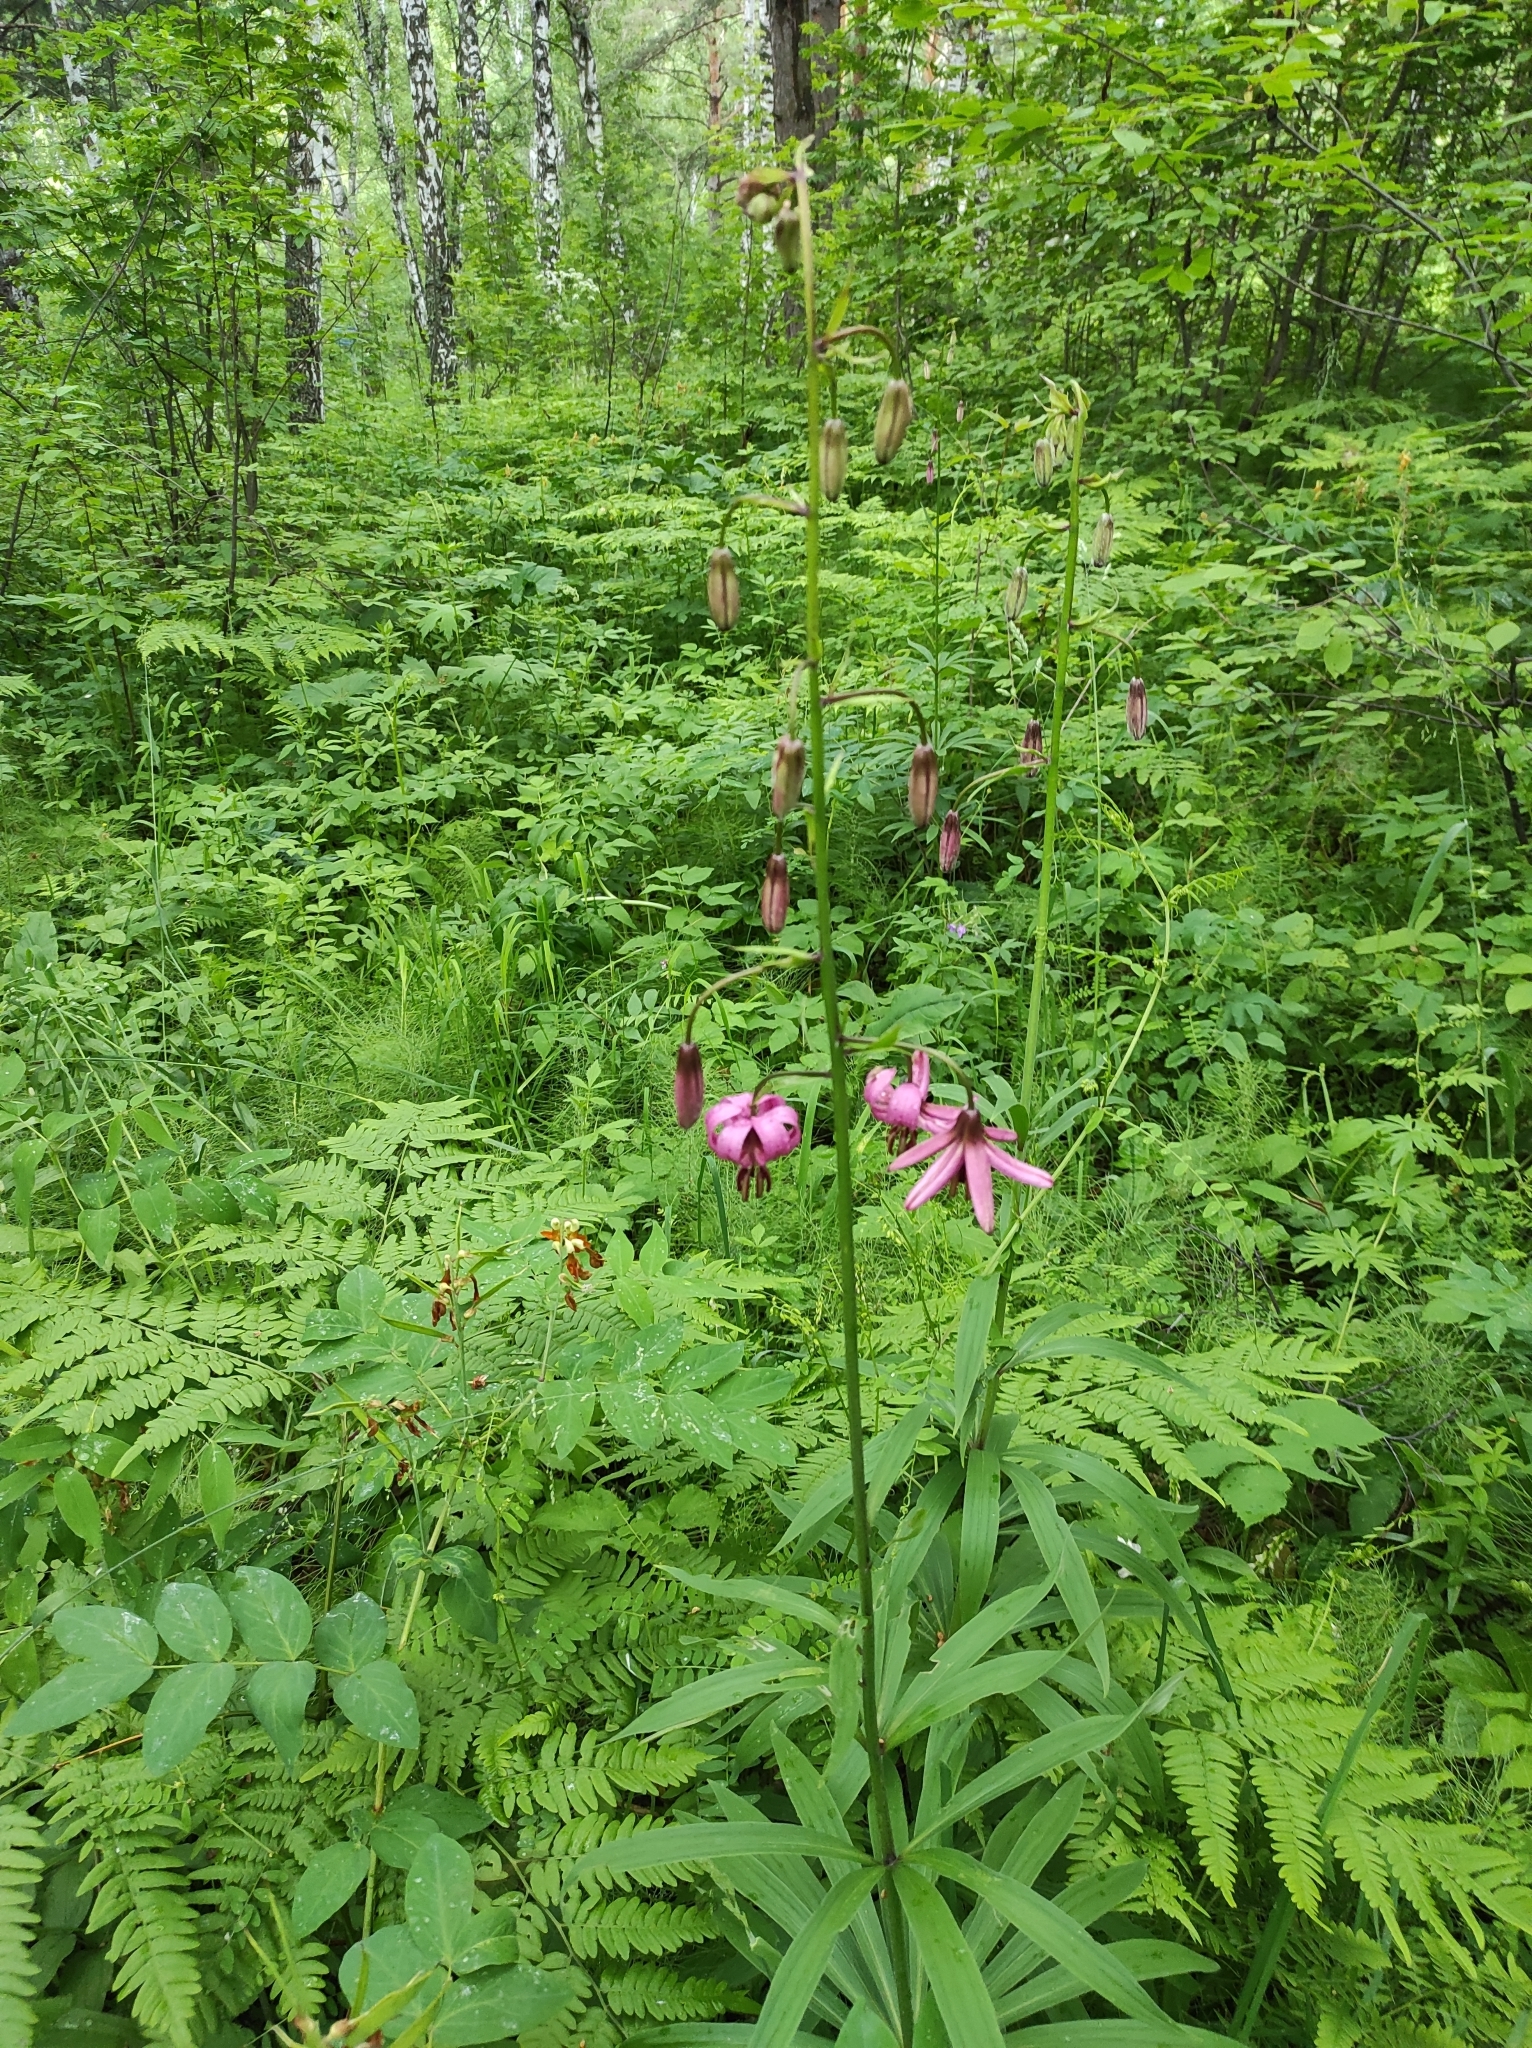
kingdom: Plantae
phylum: Tracheophyta
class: Liliopsida
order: Liliales
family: Liliaceae
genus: Lilium
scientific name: Lilium martagon
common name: Martagon lily
